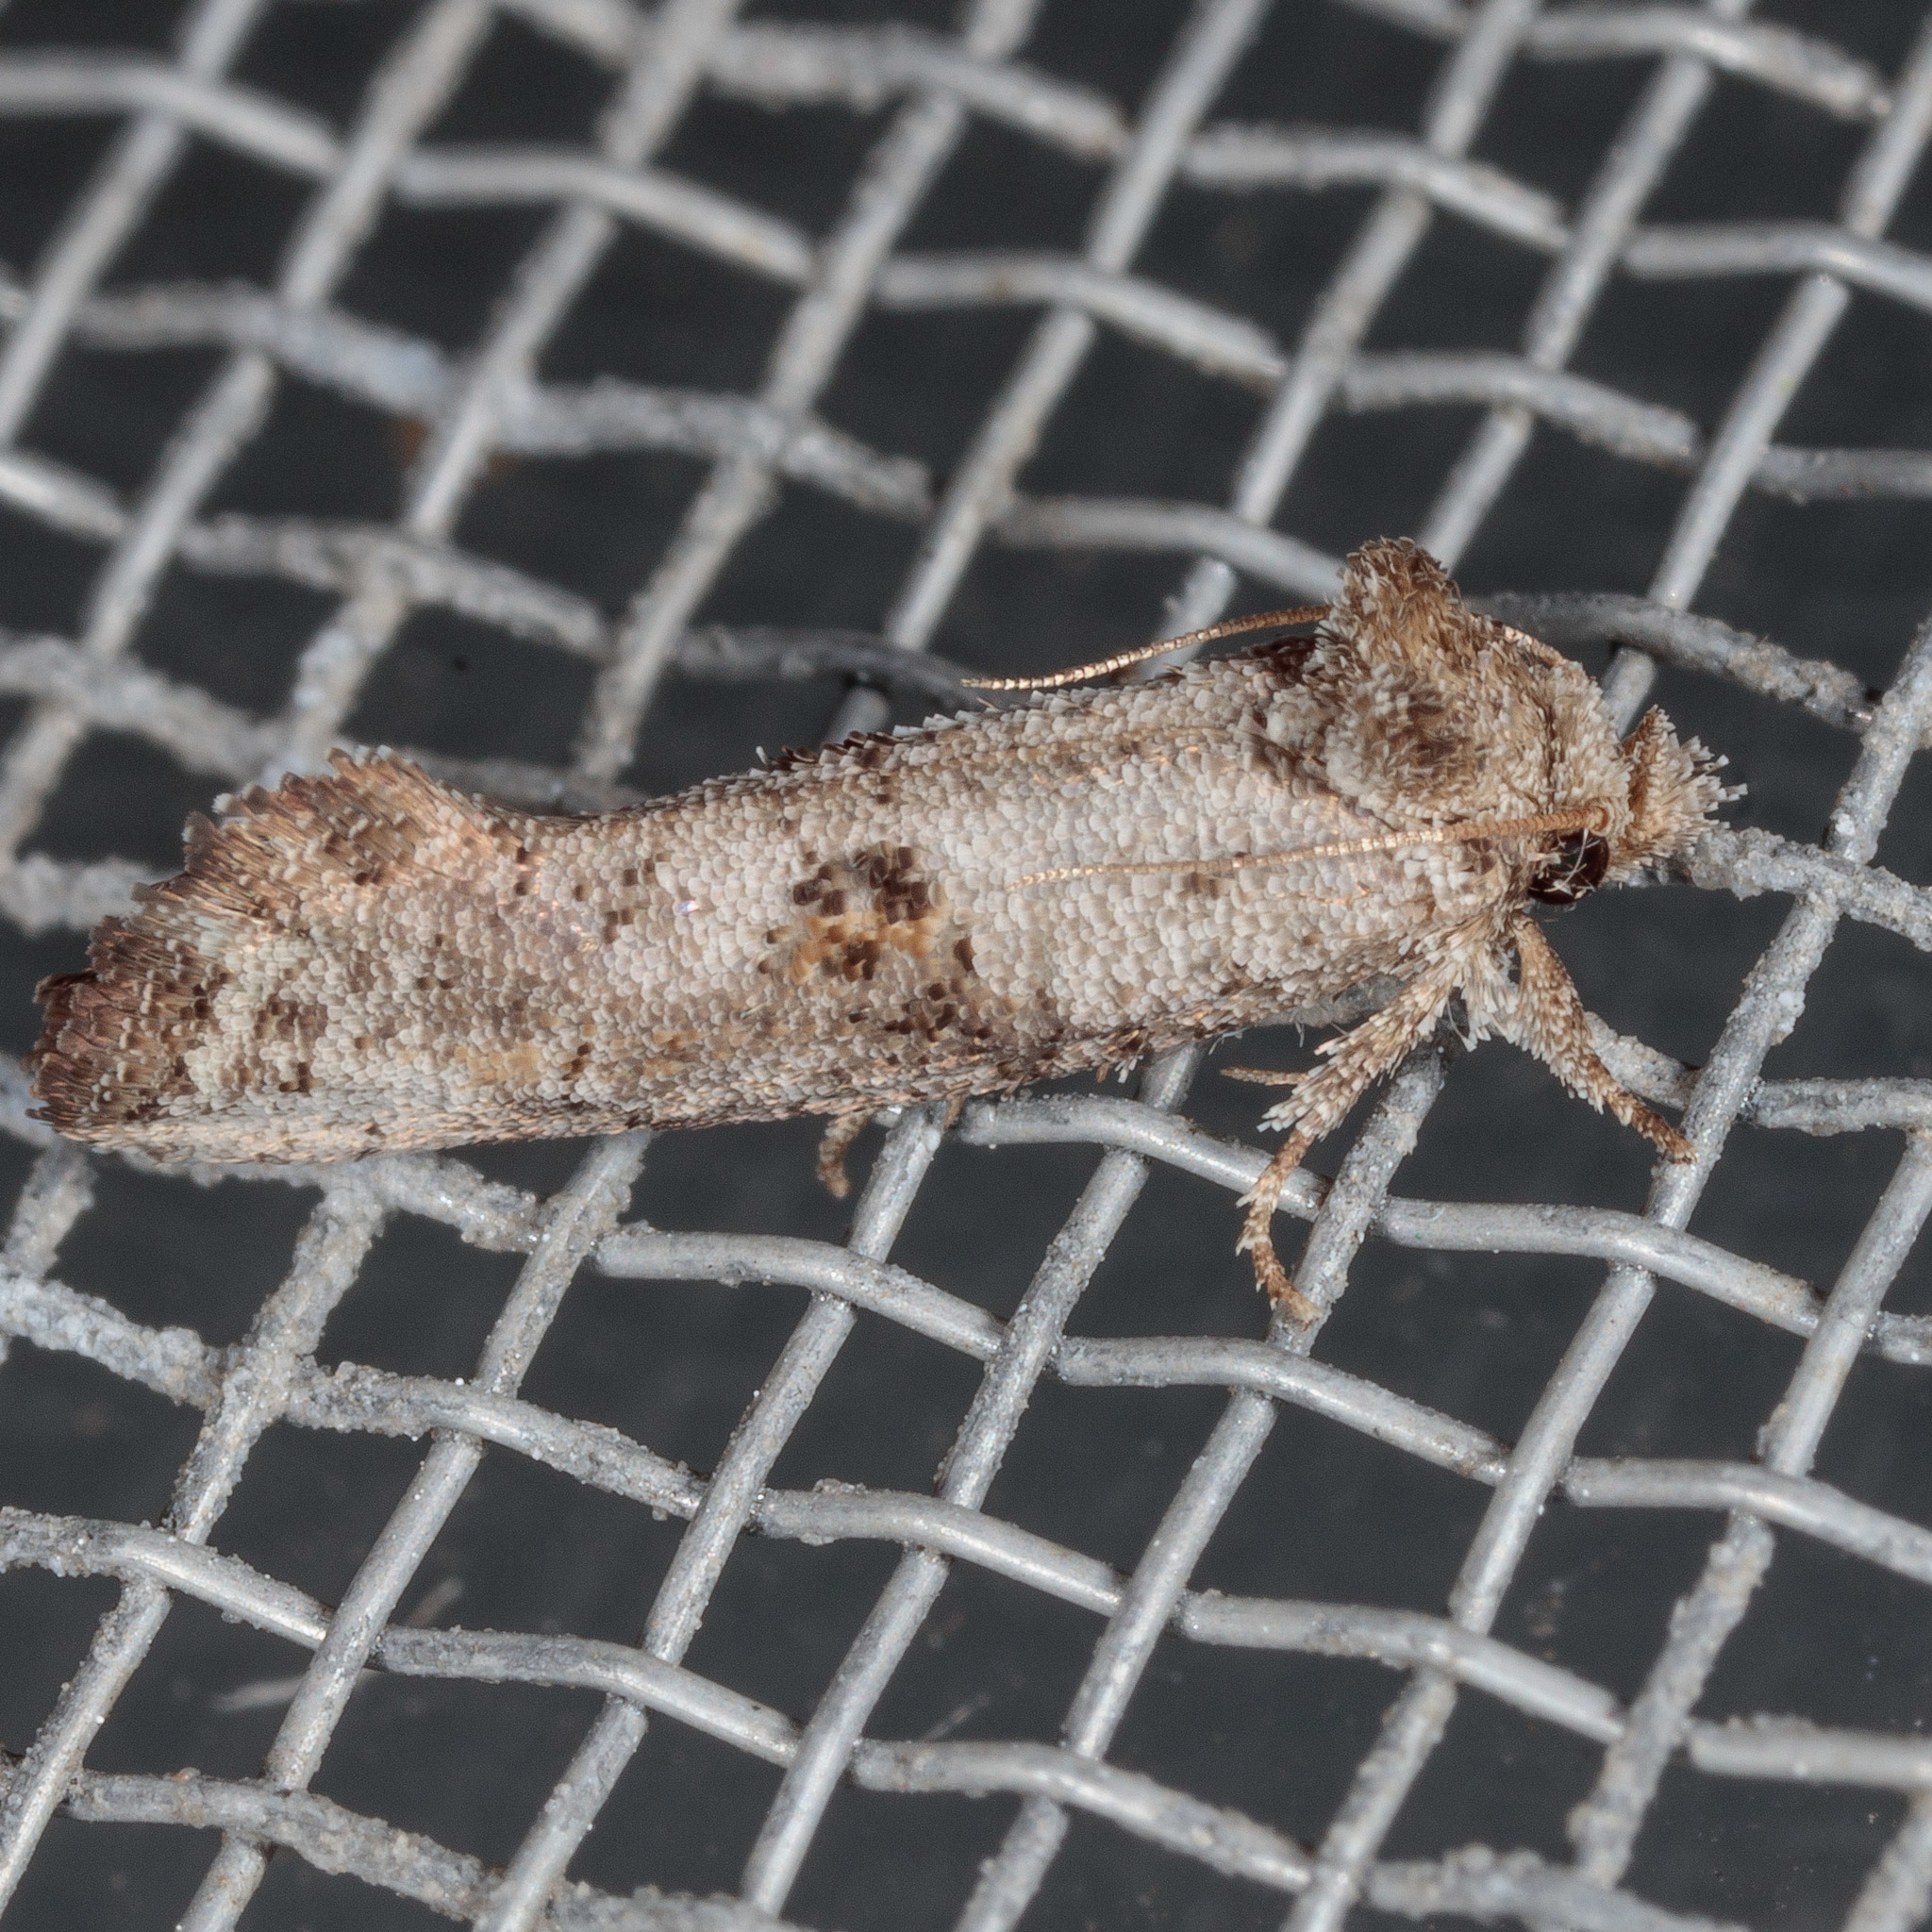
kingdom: Animalia
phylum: Arthropoda
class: Insecta
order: Lepidoptera
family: Tineidae
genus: Acrolophus
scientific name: Acrolophus piger
